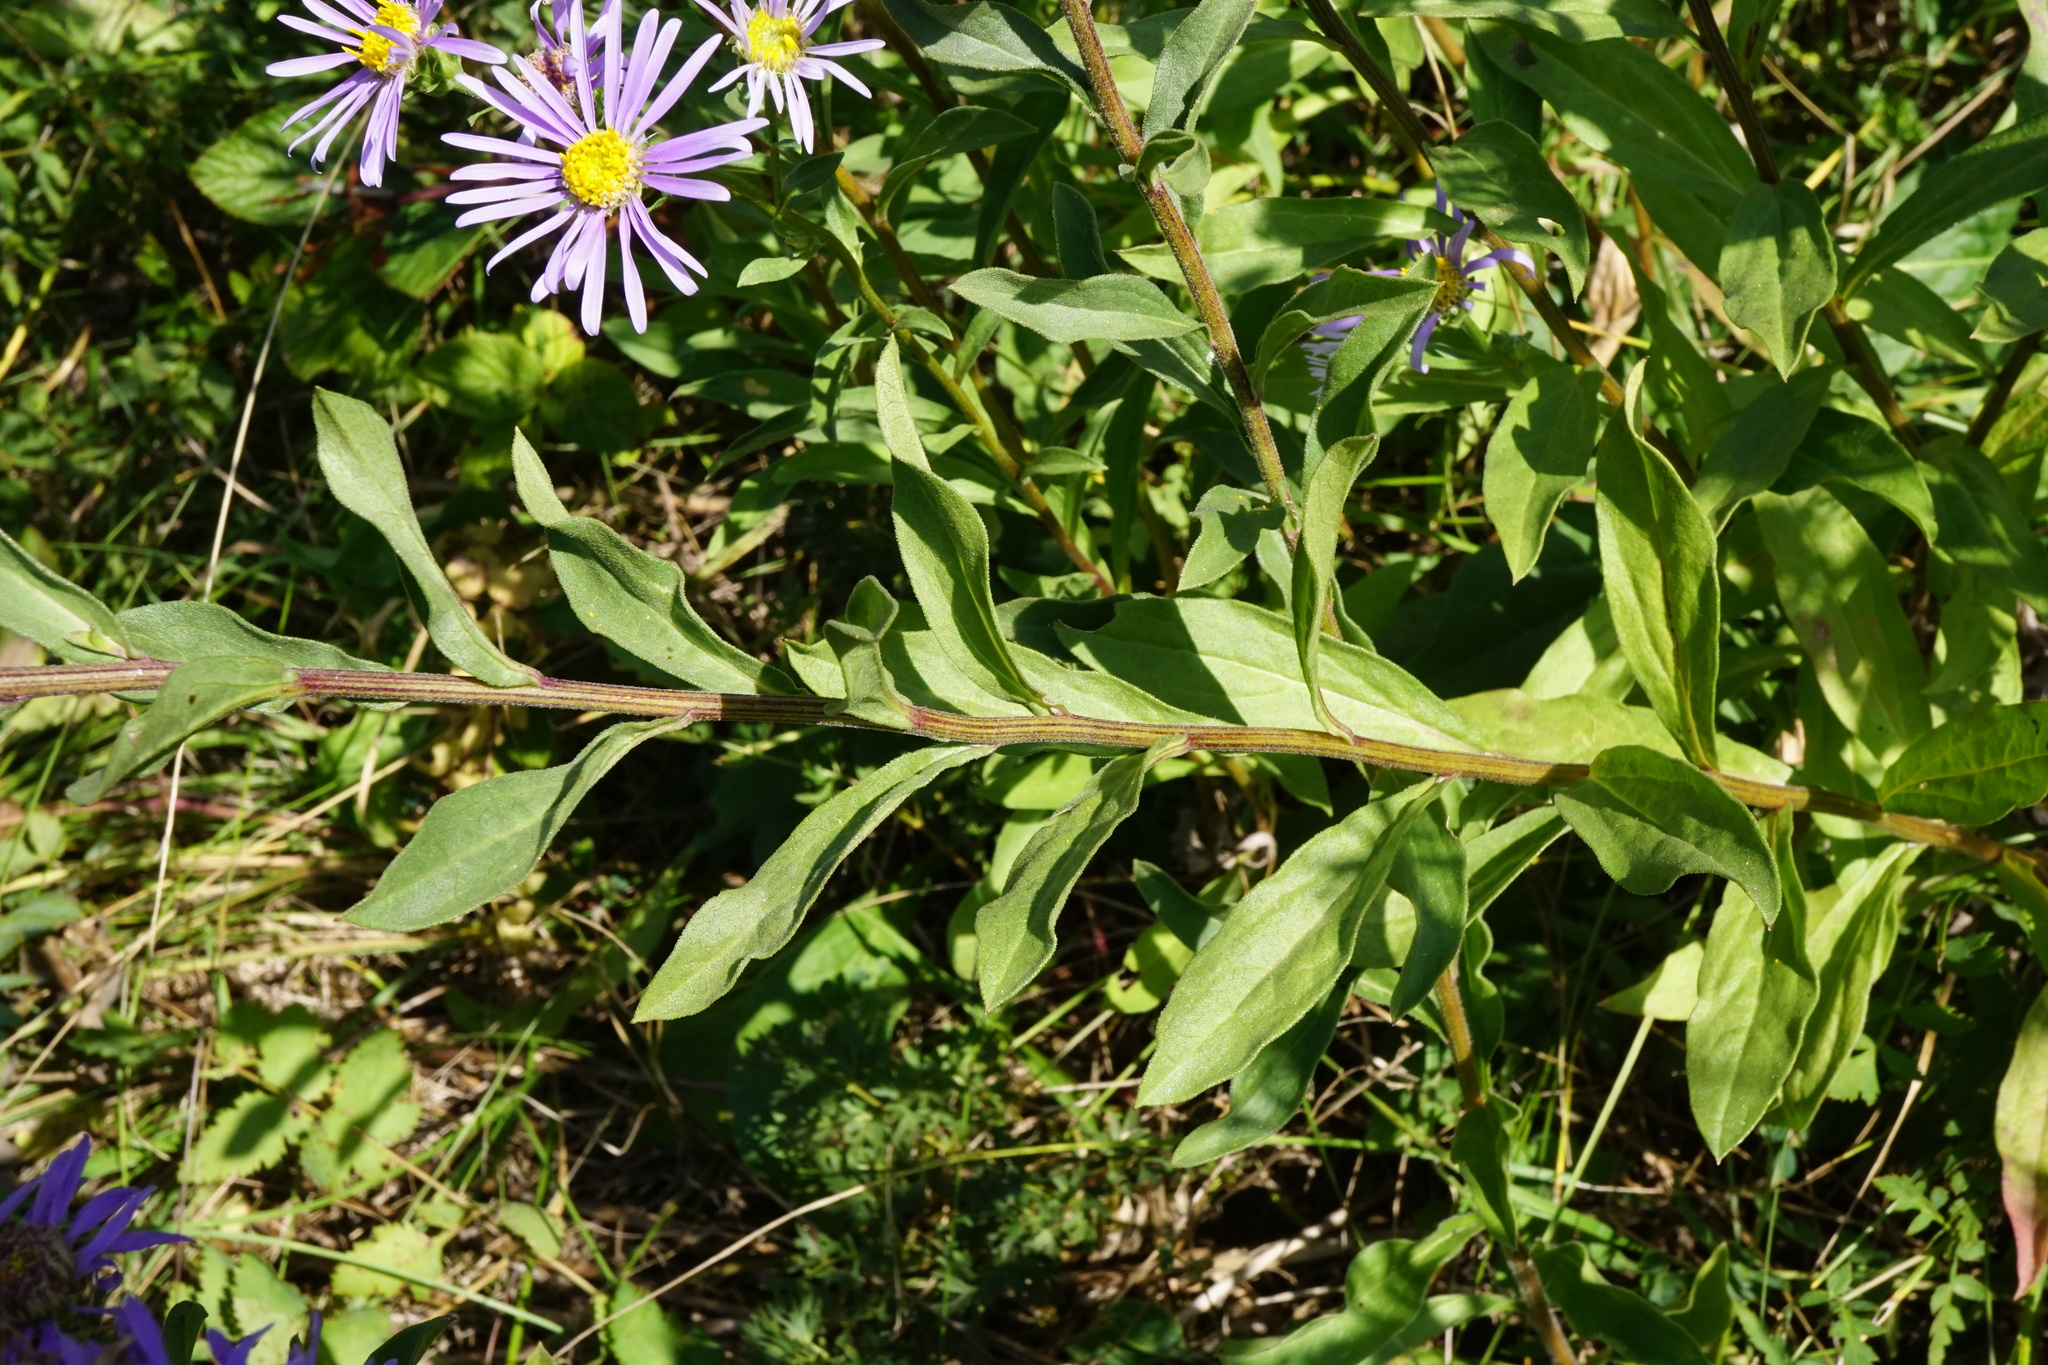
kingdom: Plantae
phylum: Tracheophyta
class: Magnoliopsida
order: Asterales
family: Asteraceae
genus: Aster
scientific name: Aster amellus
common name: European michaelmas daisy
